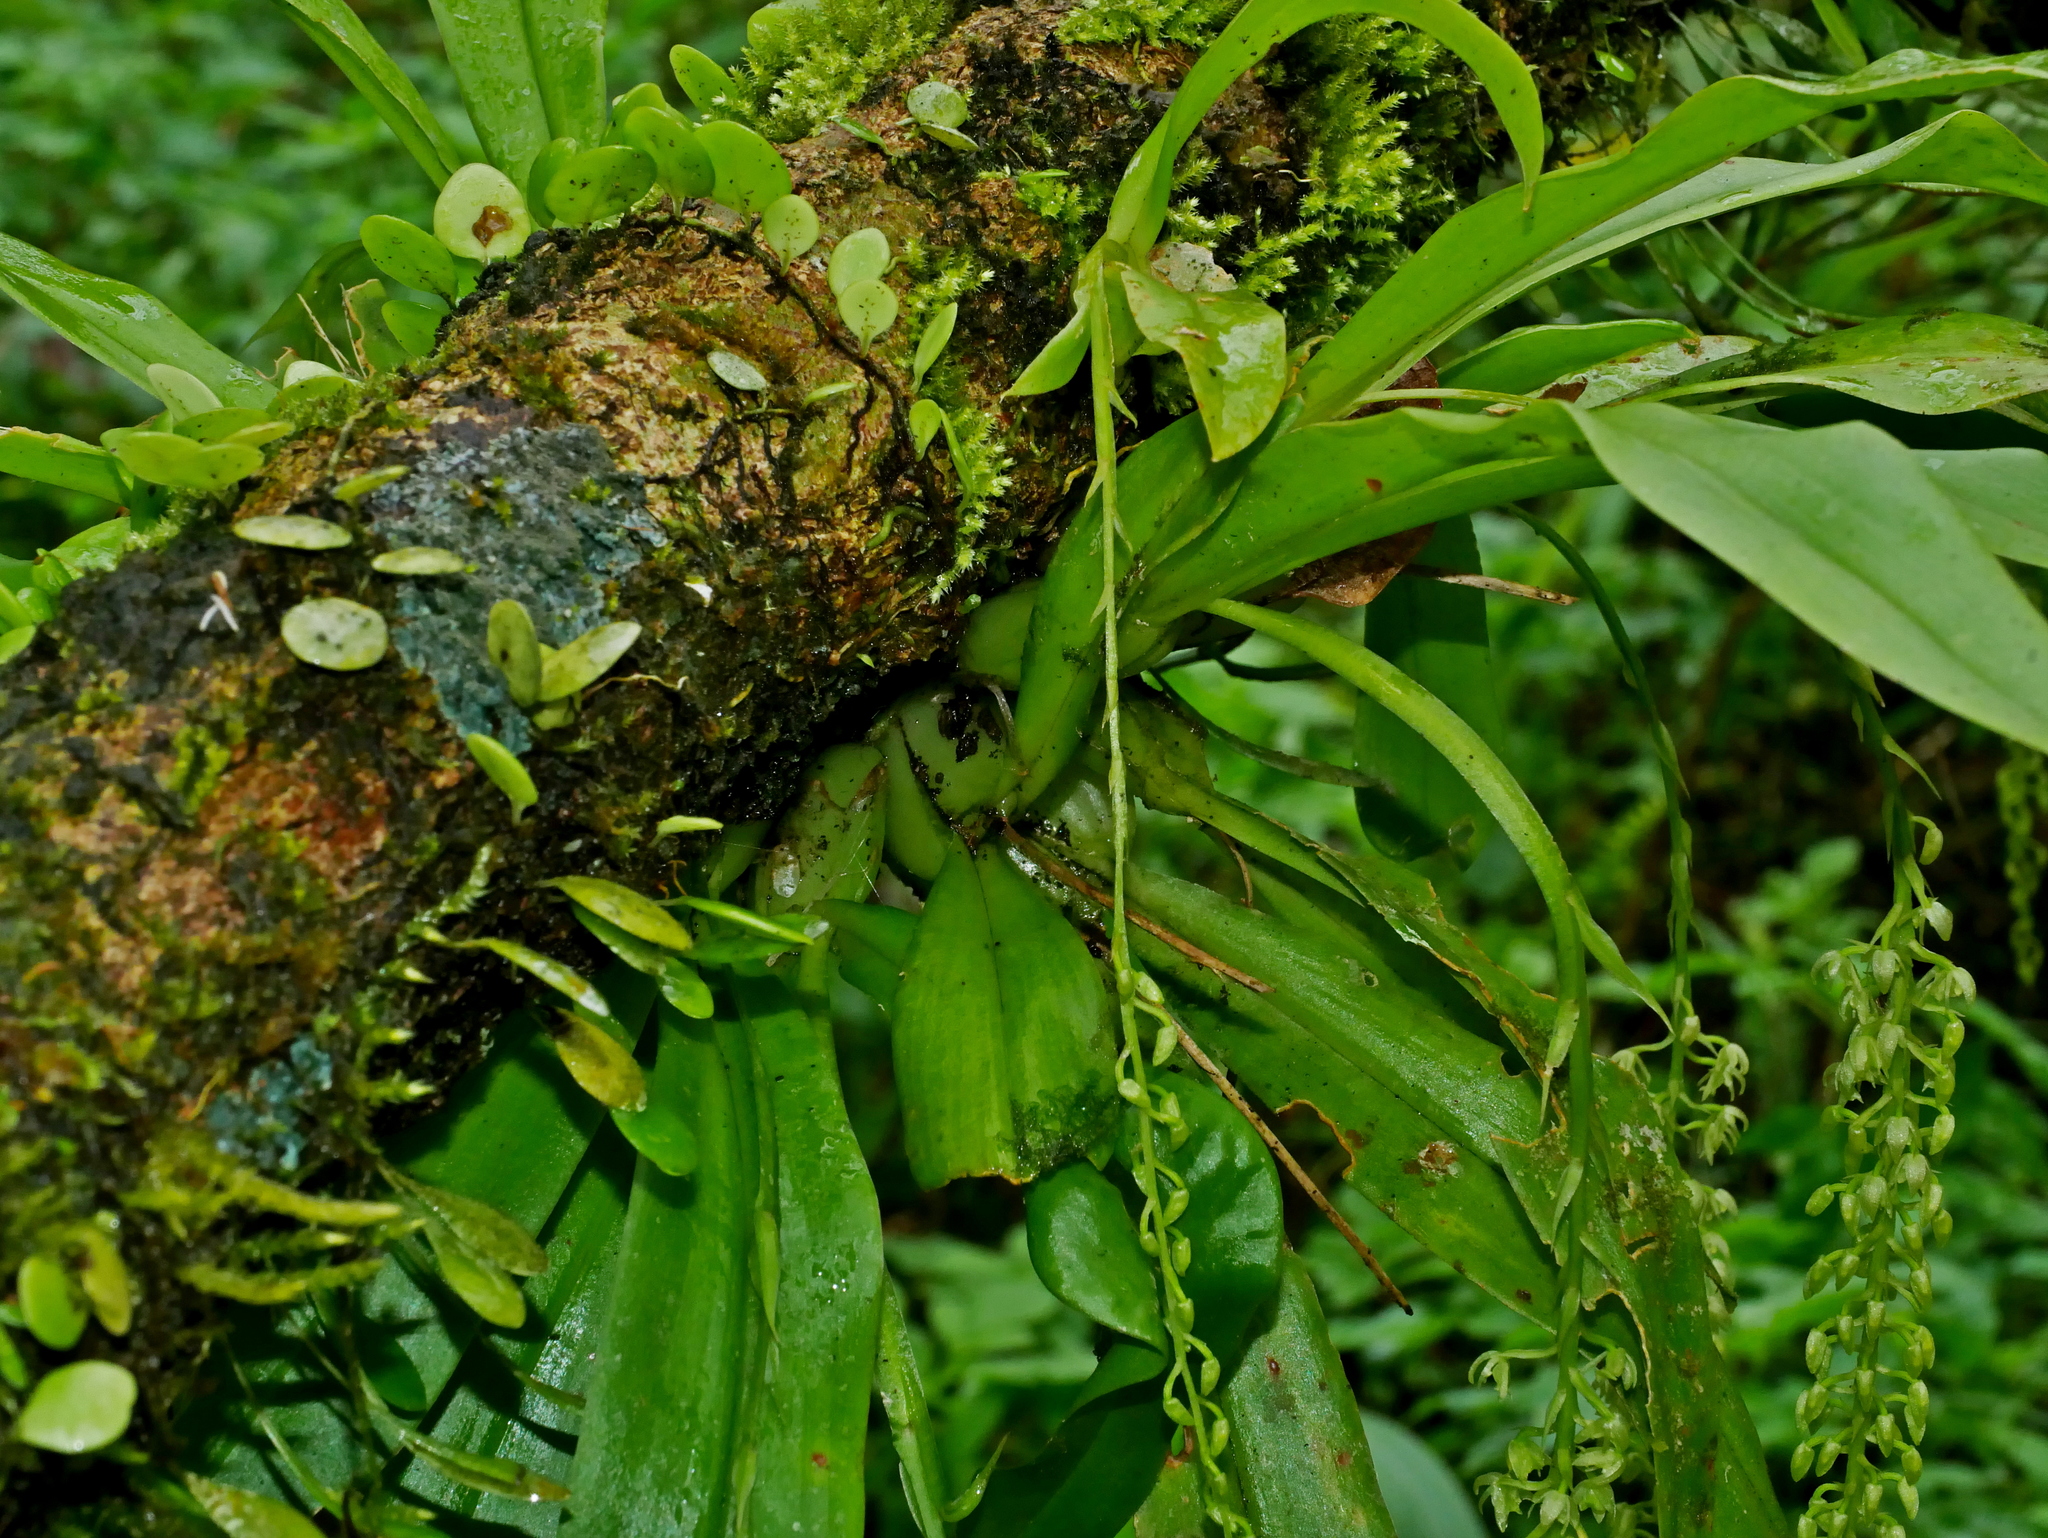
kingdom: Plantae
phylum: Tracheophyta
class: Liliopsida
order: Asparagales
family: Orchidaceae
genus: Liparis
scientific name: Liparis elliptica
